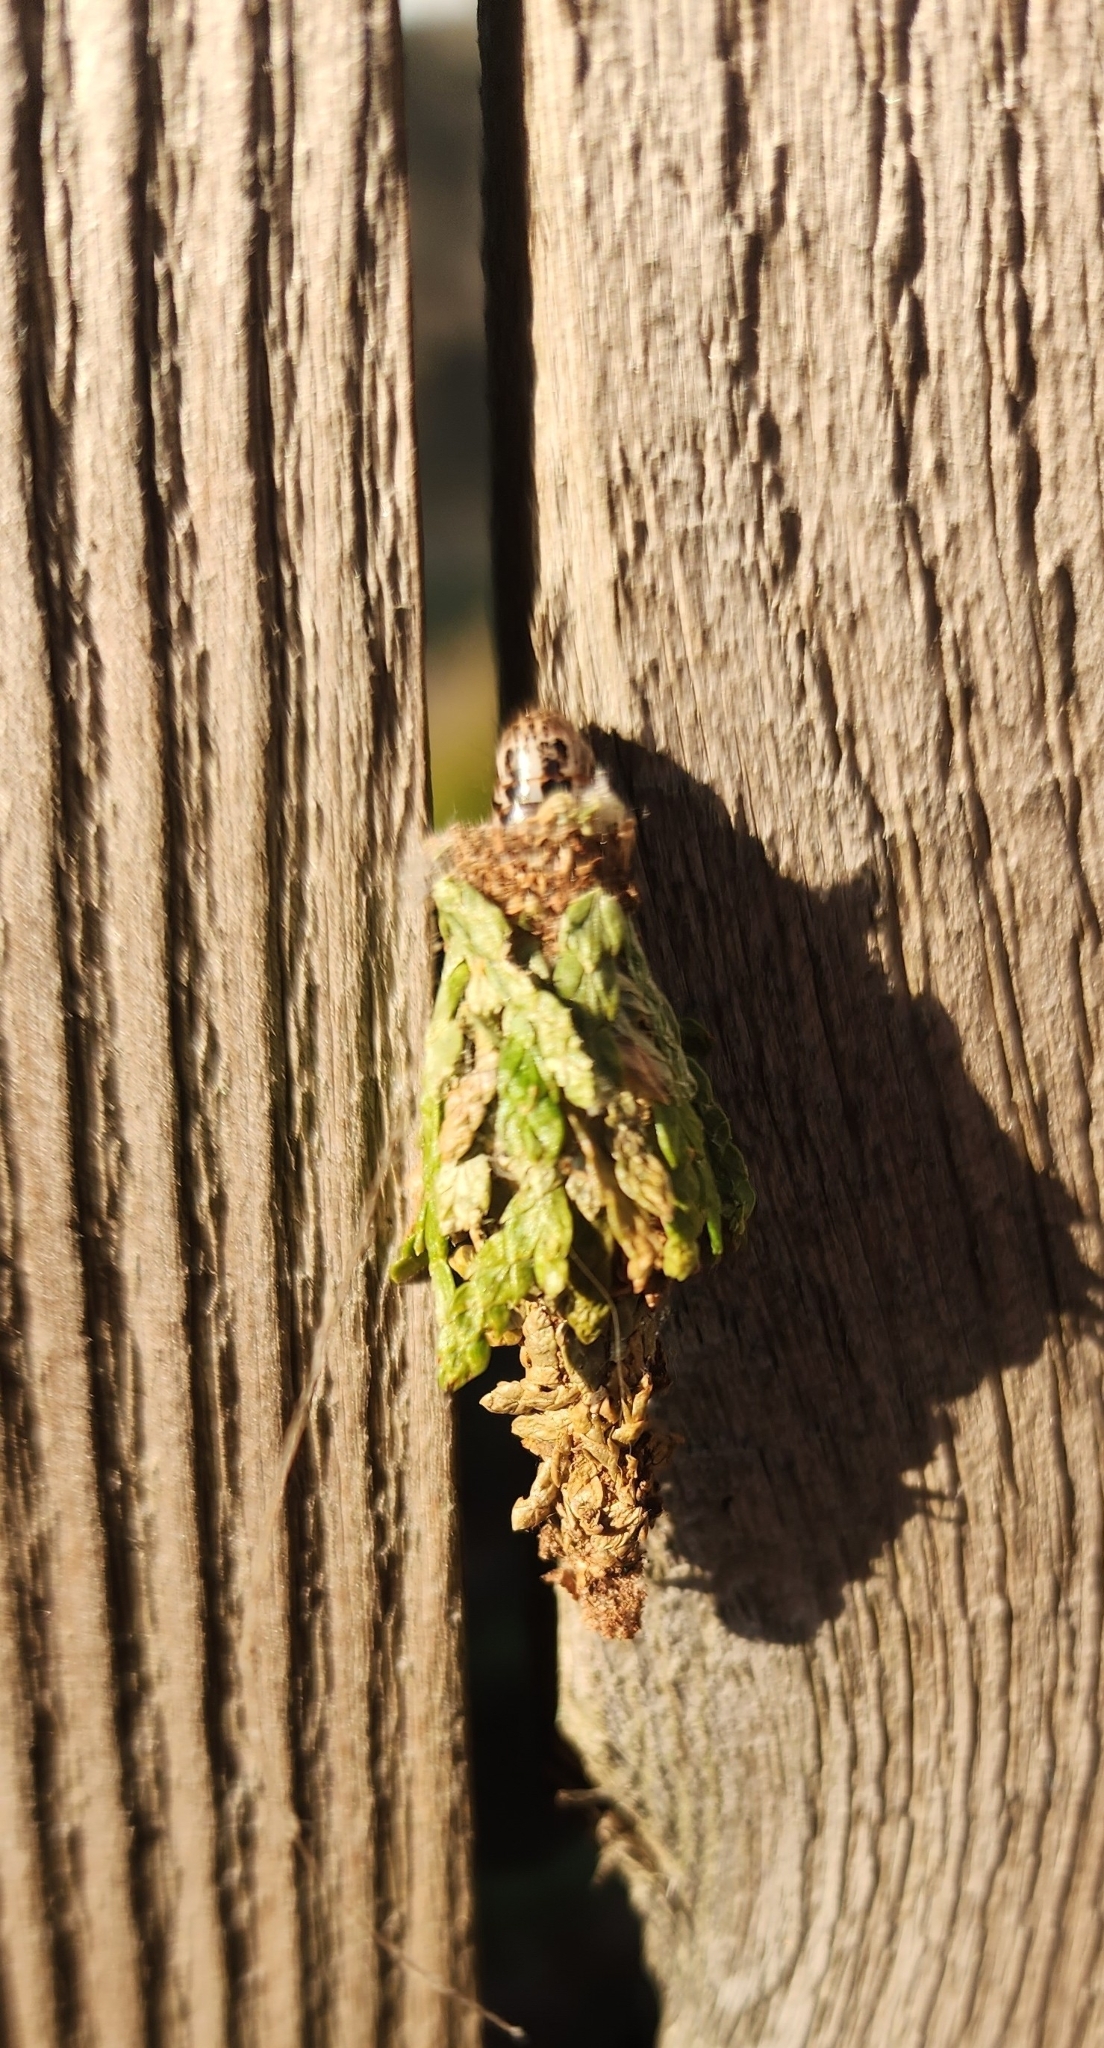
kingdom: Animalia
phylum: Arthropoda
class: Insecta
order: Lepidoptera
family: Psychidae
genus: Thyridopteryx
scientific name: Thyridopteryx ephemeraeformis
